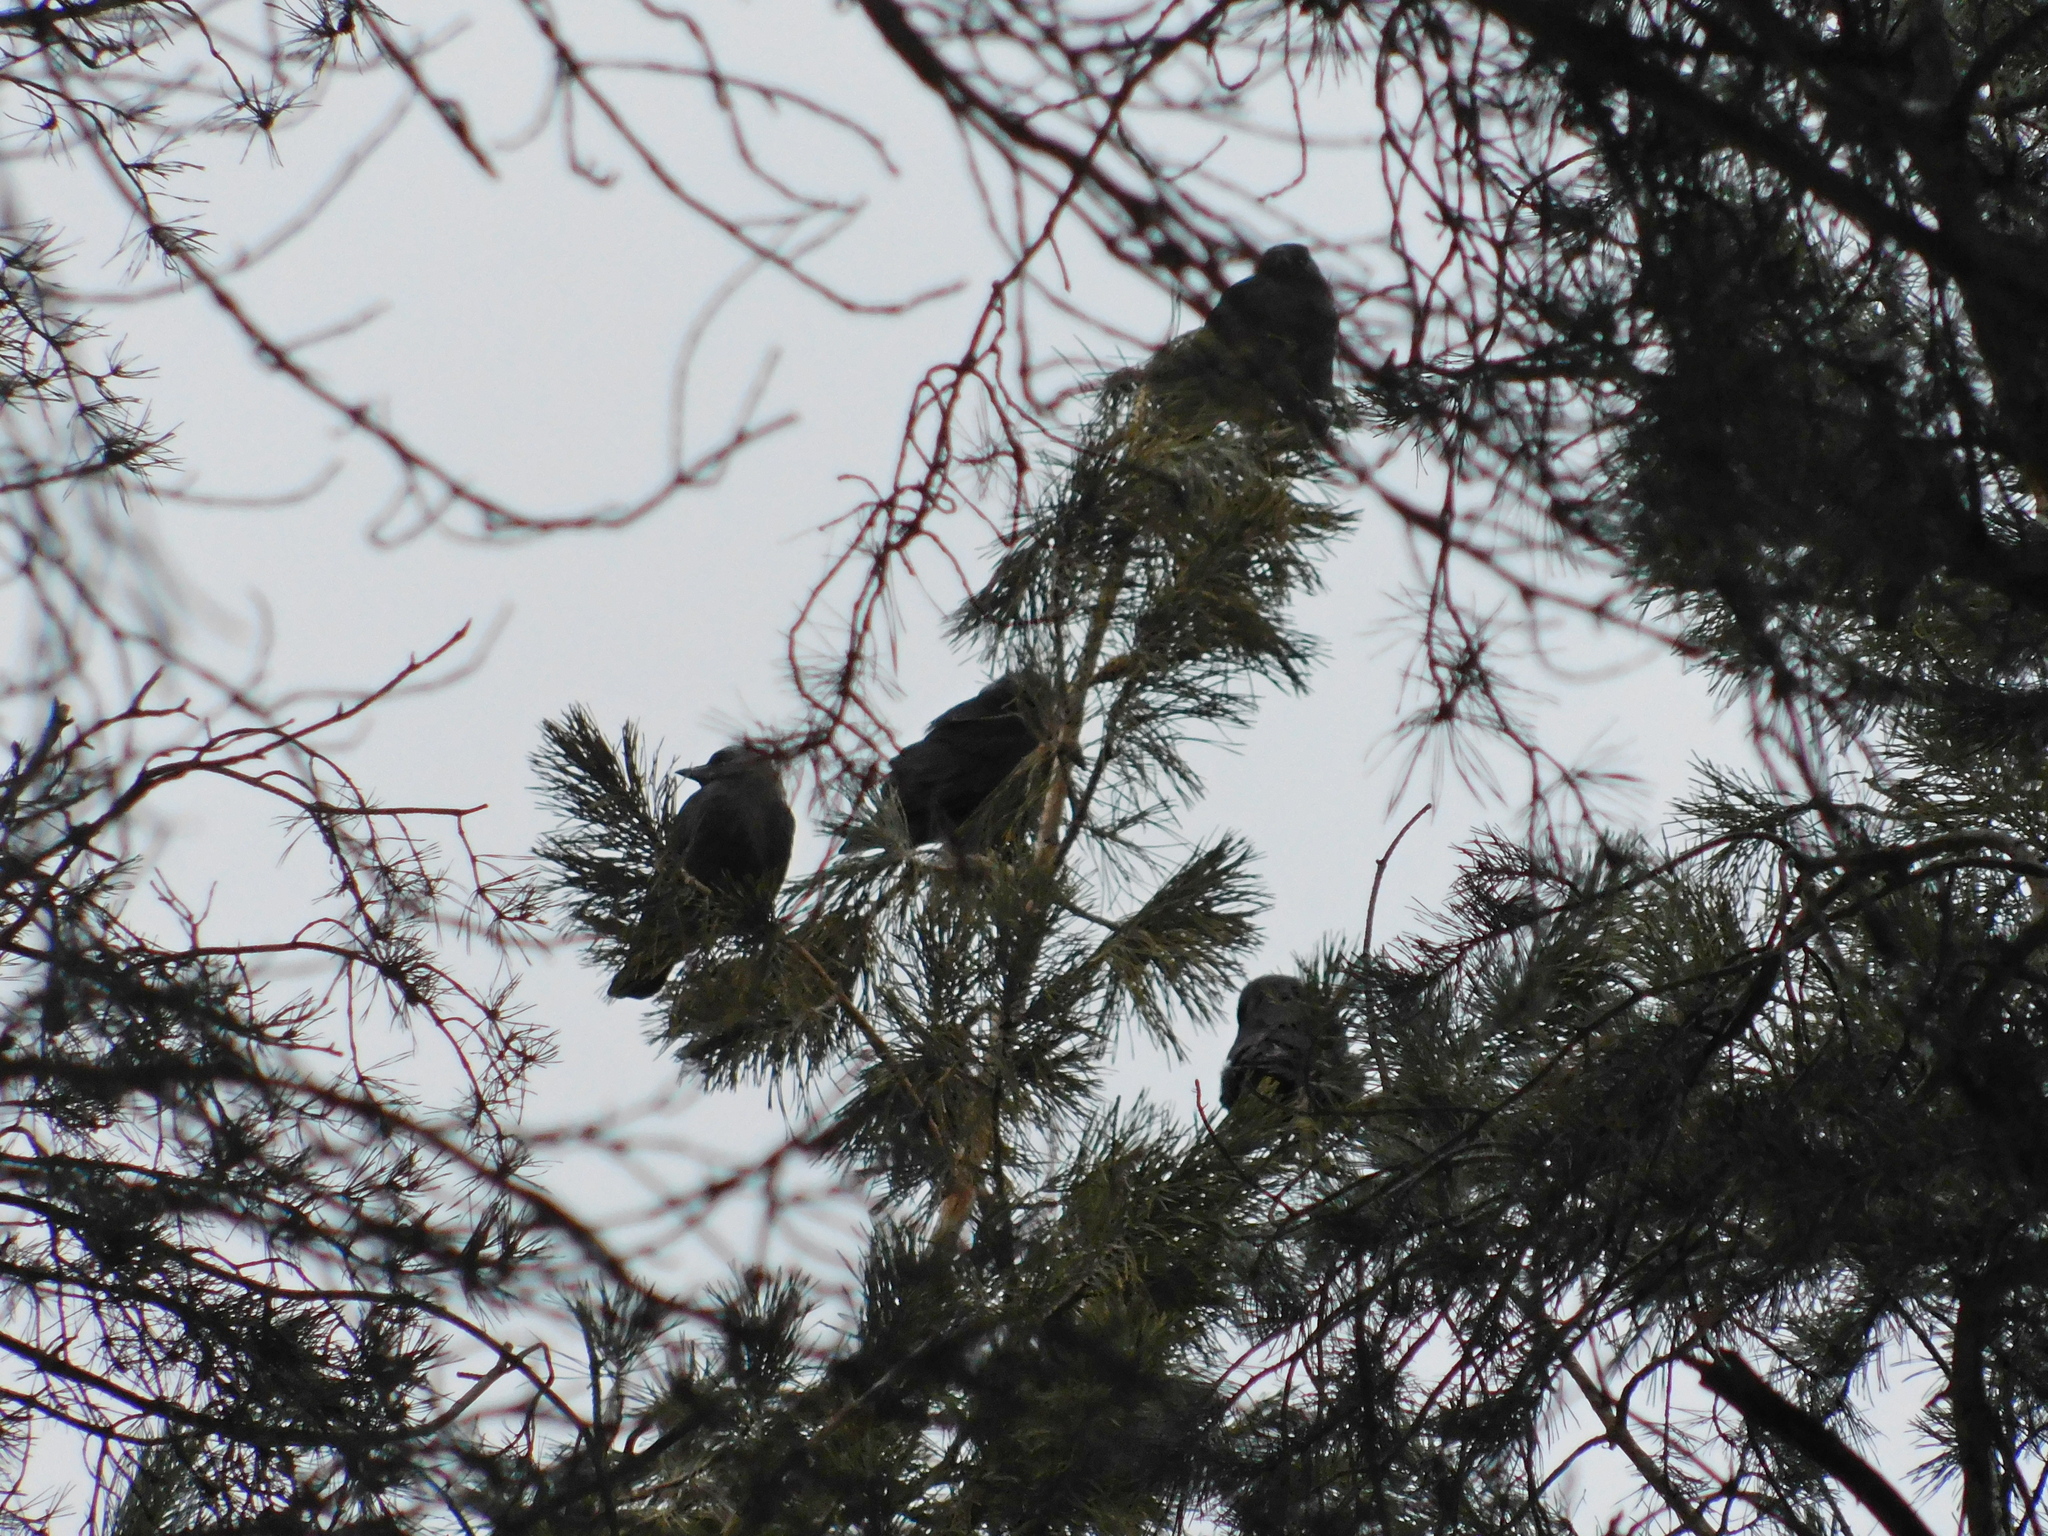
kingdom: Animalia
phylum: Chordata
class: Aves
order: Passeriformes
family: Corvidae
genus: Coloeus
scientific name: Coloeus monedula
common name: Western jackdaw
